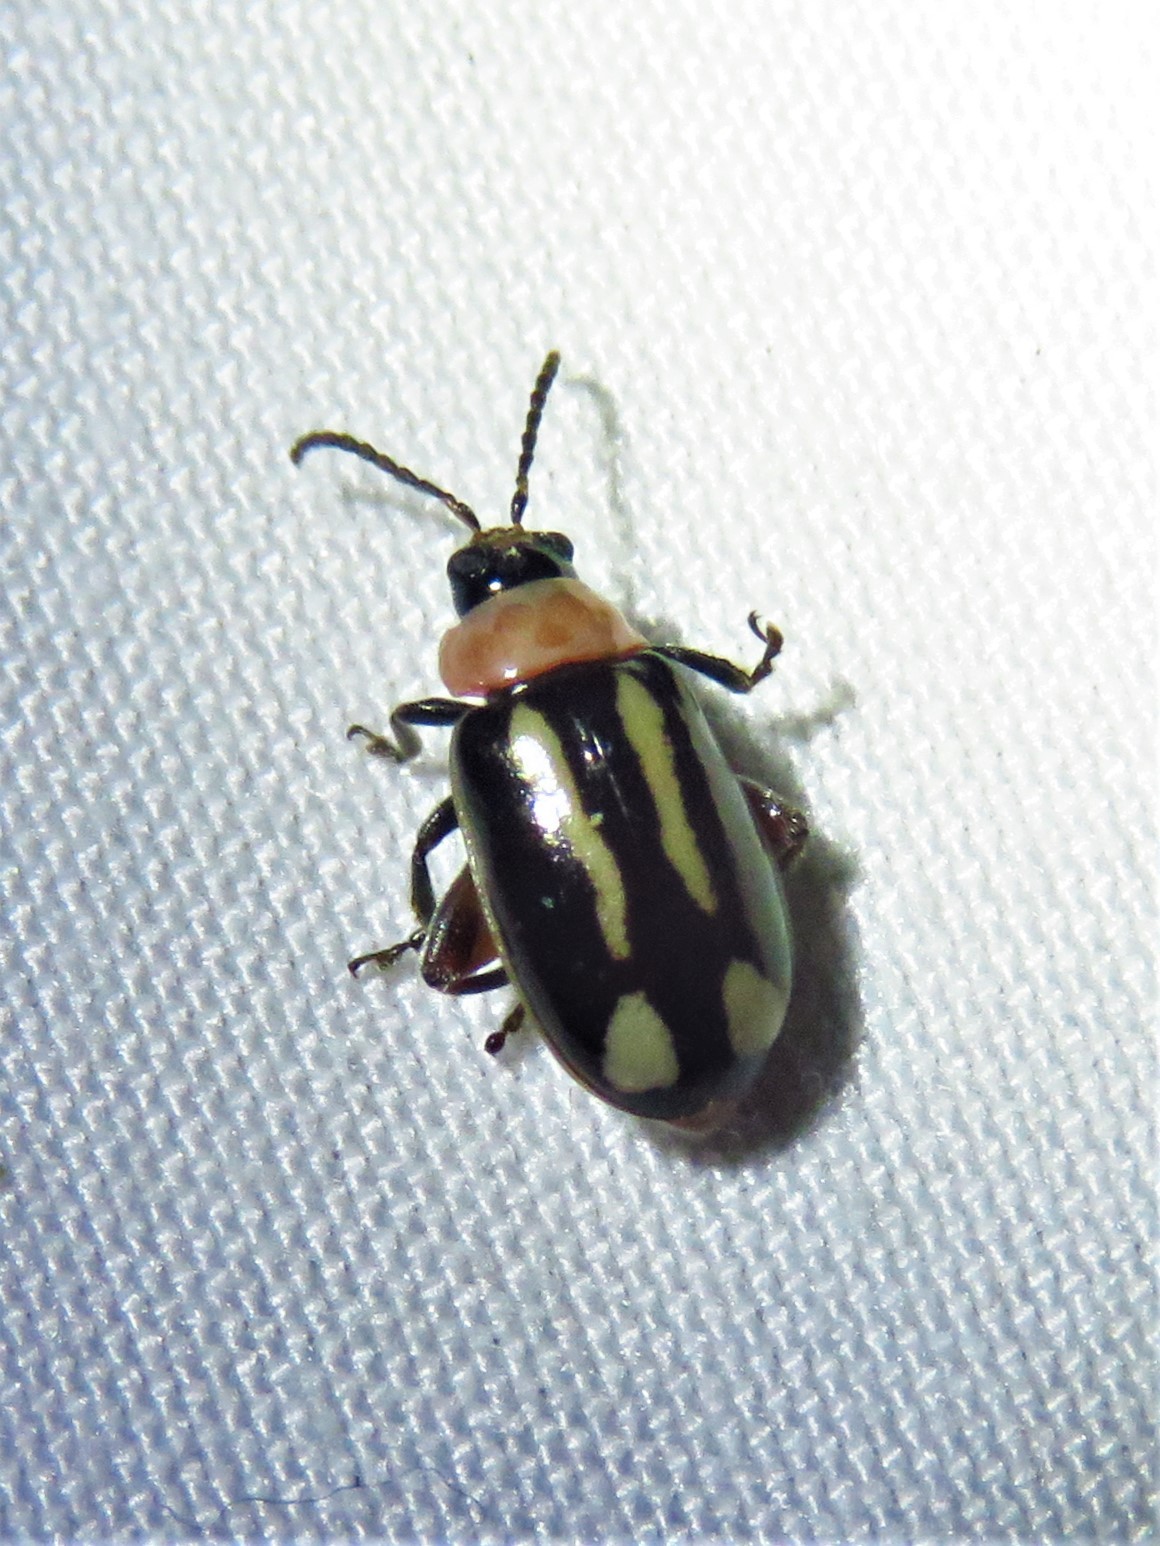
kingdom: Animalia
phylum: Arthropoda
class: Insecta
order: Coleoptera
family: Chrysomelidae
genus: Kuschelina
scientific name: Kuschelina laeta
